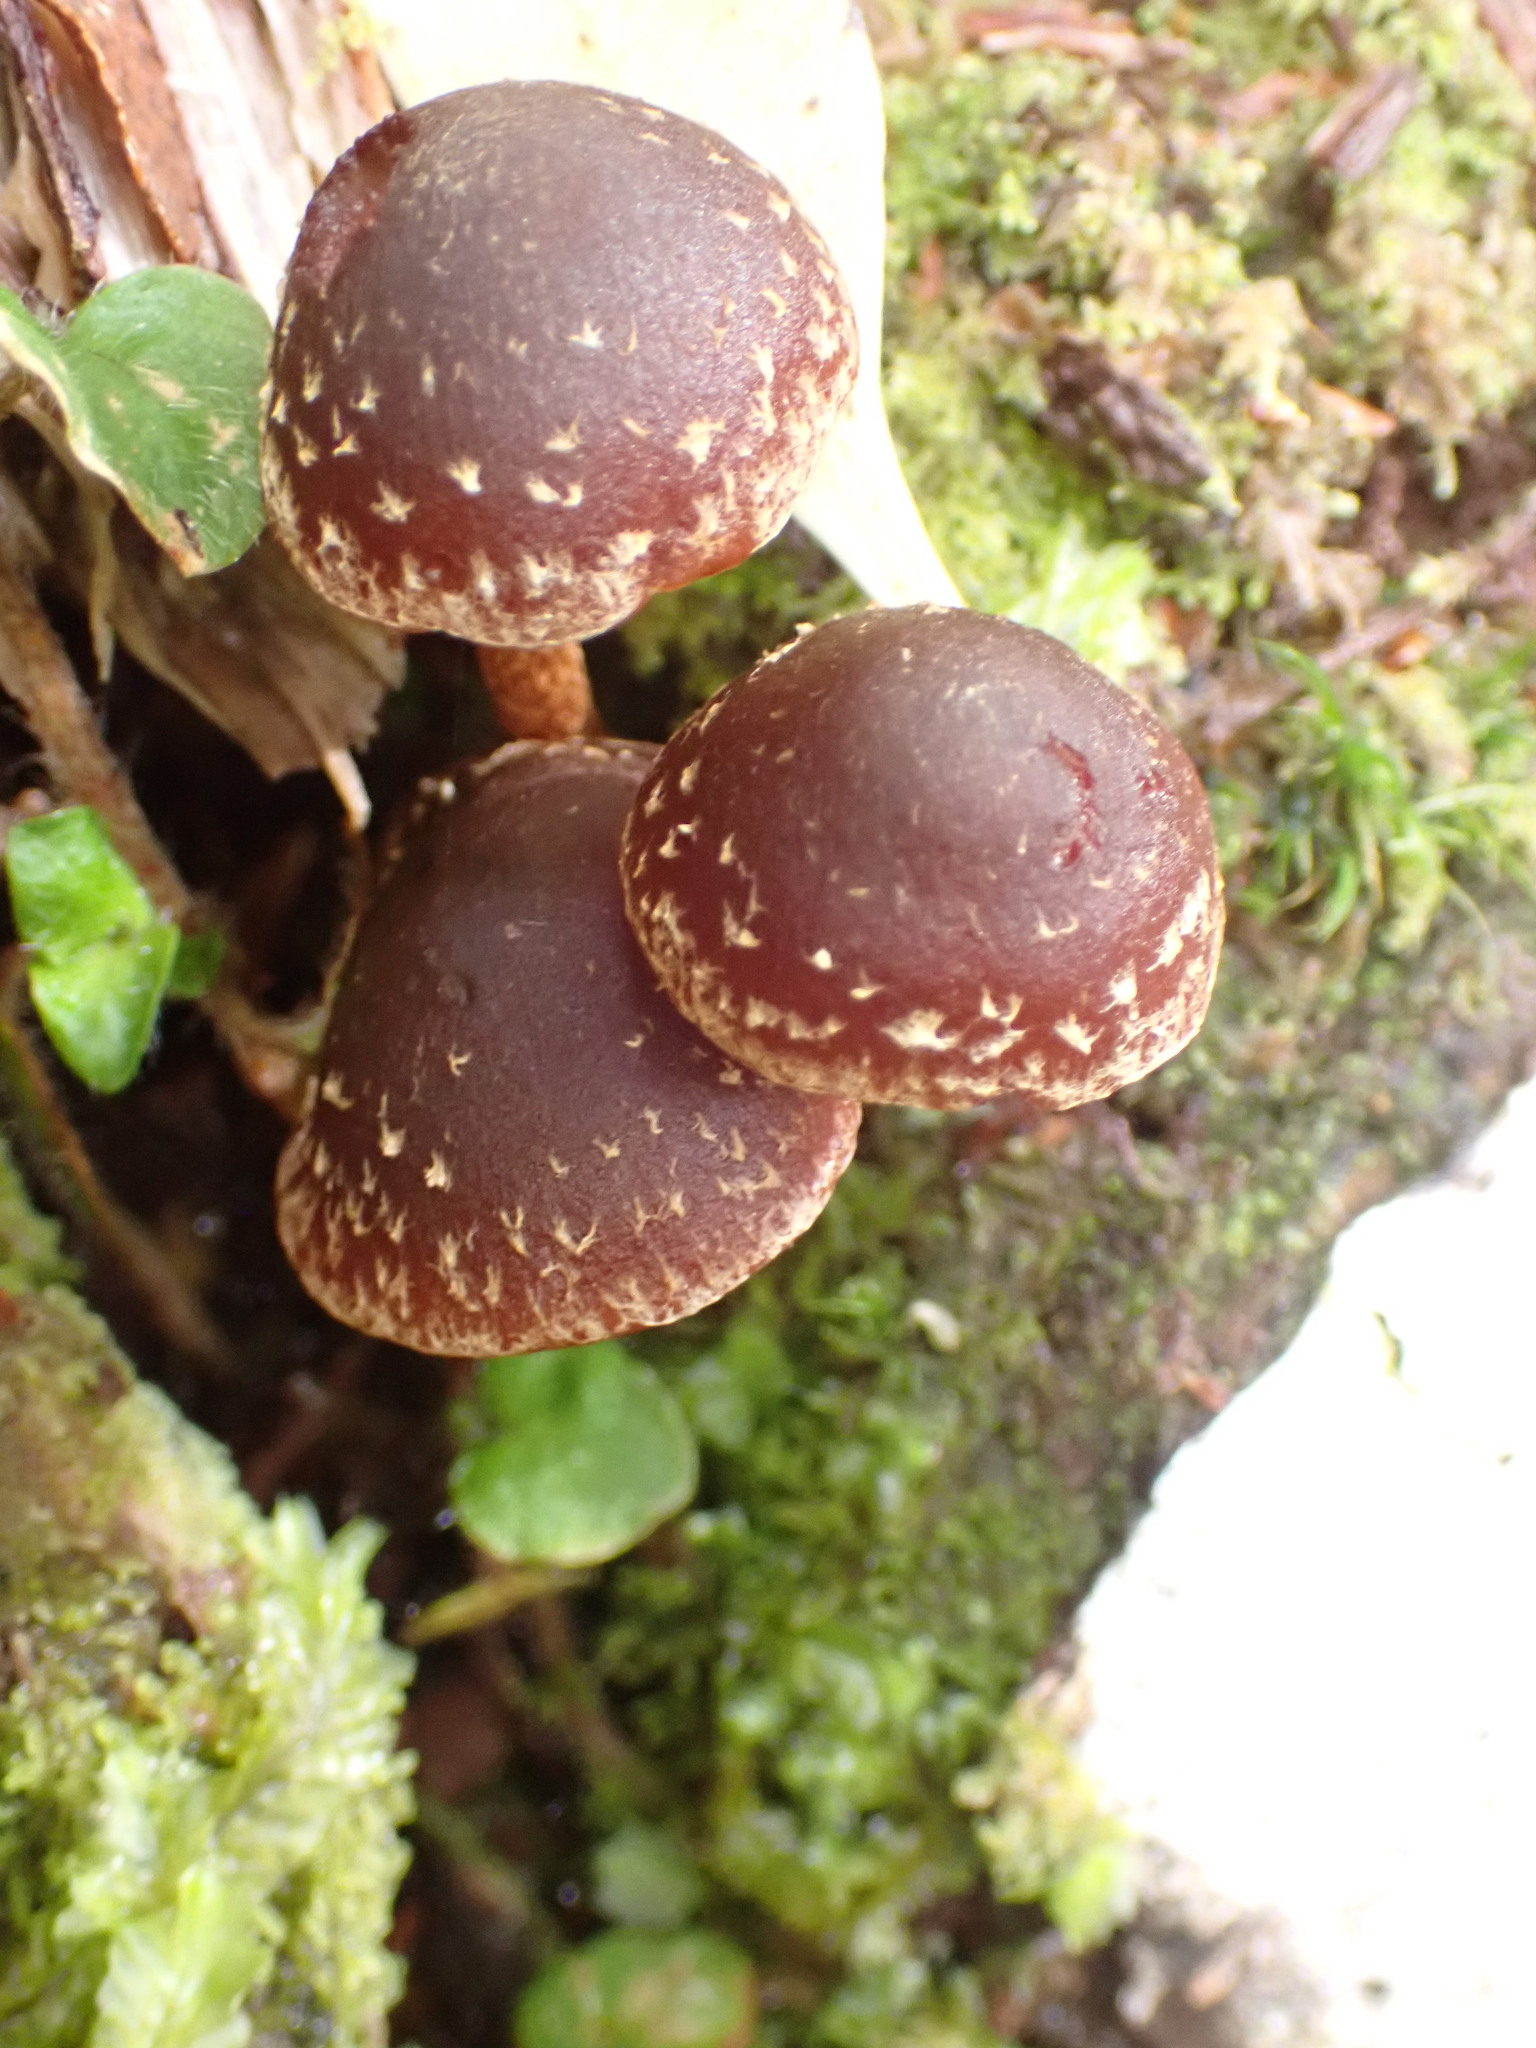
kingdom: Fungi
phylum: Basidiomycota
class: Agaricomycetes
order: Agaricales
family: Strophariaceae
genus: Hypholoma
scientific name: Hypholoma brunneum
